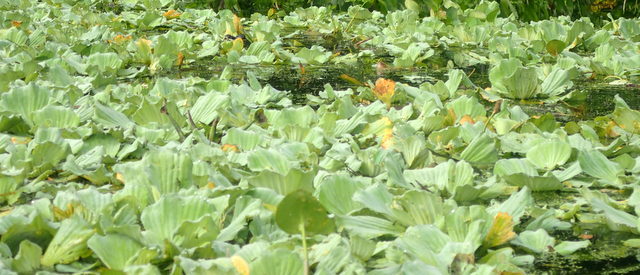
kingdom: Plantae
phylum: Tracheophyta
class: Liliopsida
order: Alismatales
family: Araceae
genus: Pistia
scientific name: Pistia stratiotes
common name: Water lettuce
